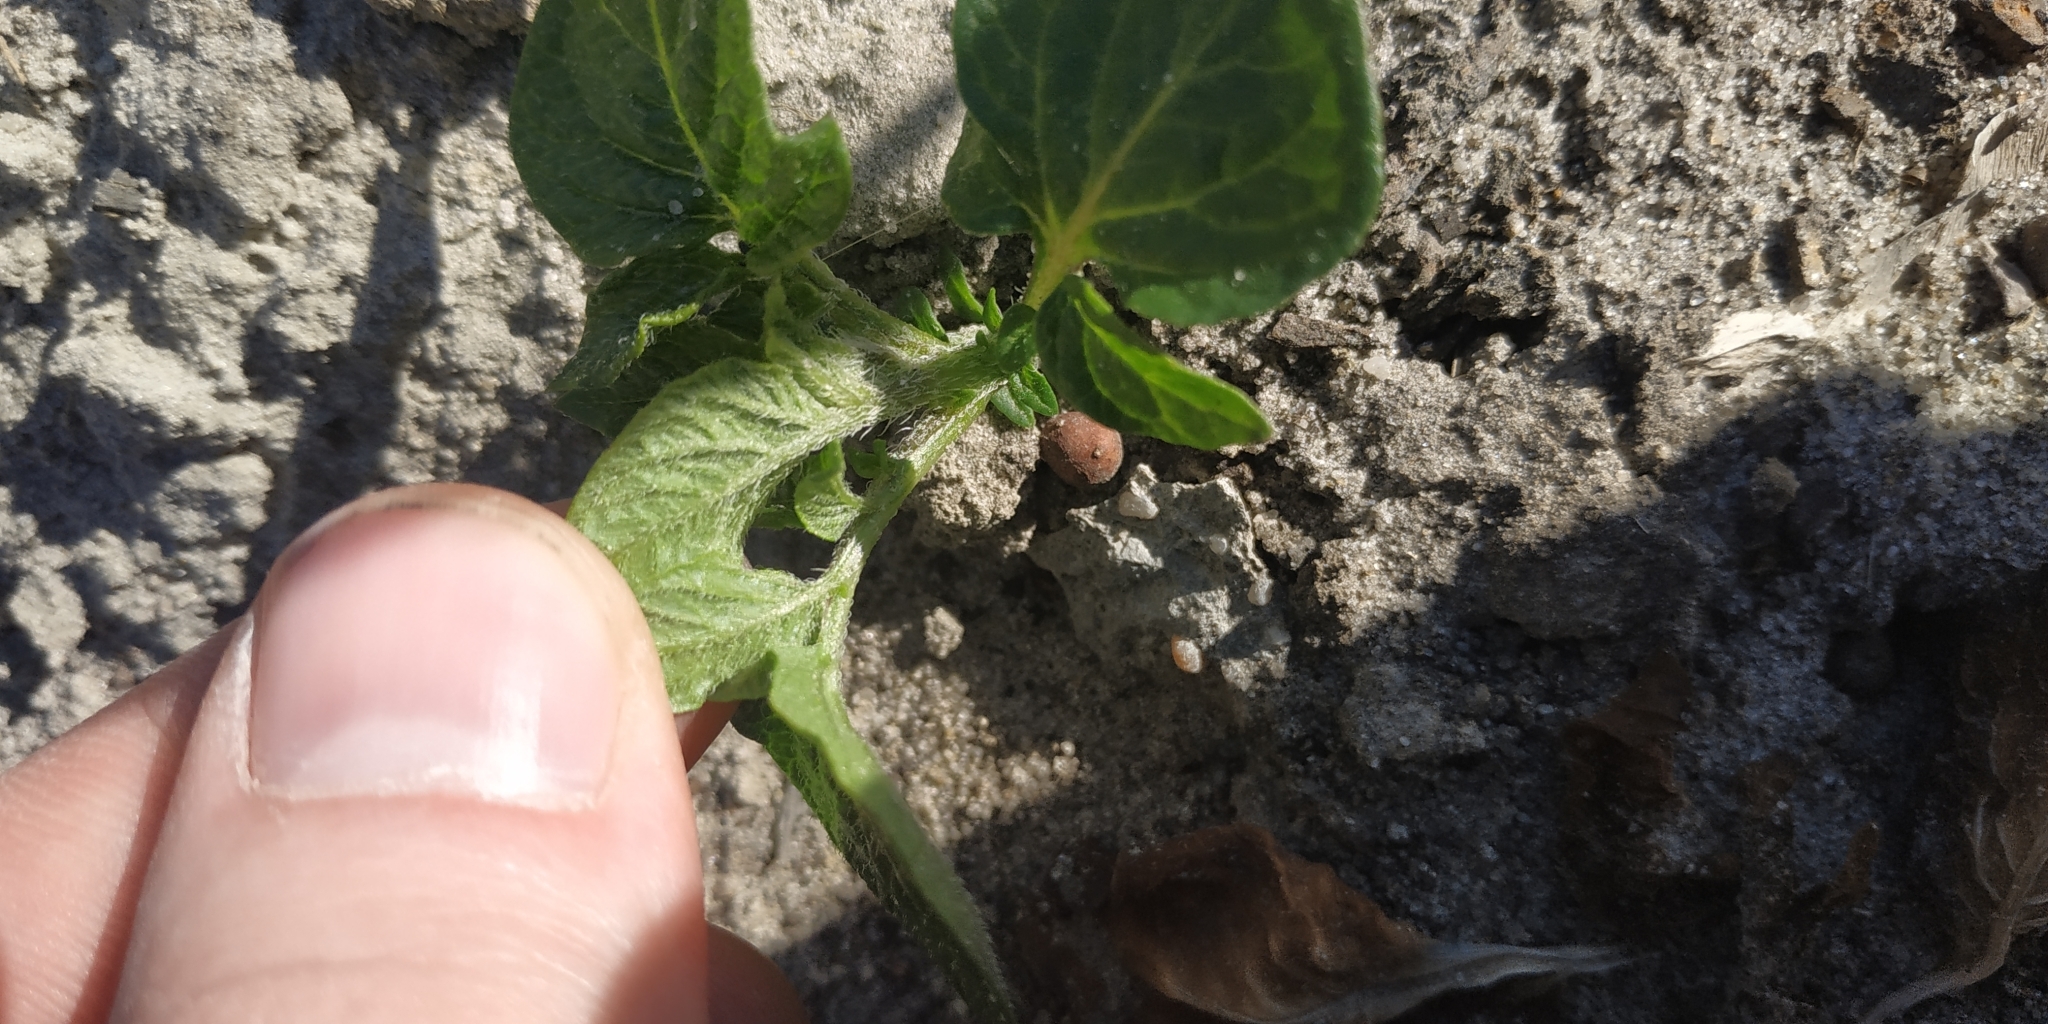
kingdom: Plantae
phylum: Tracheophyta
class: Magnoliopsida
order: Solanales
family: Solanaceae
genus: Solanum
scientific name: Solanum tuberosum
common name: Potato
